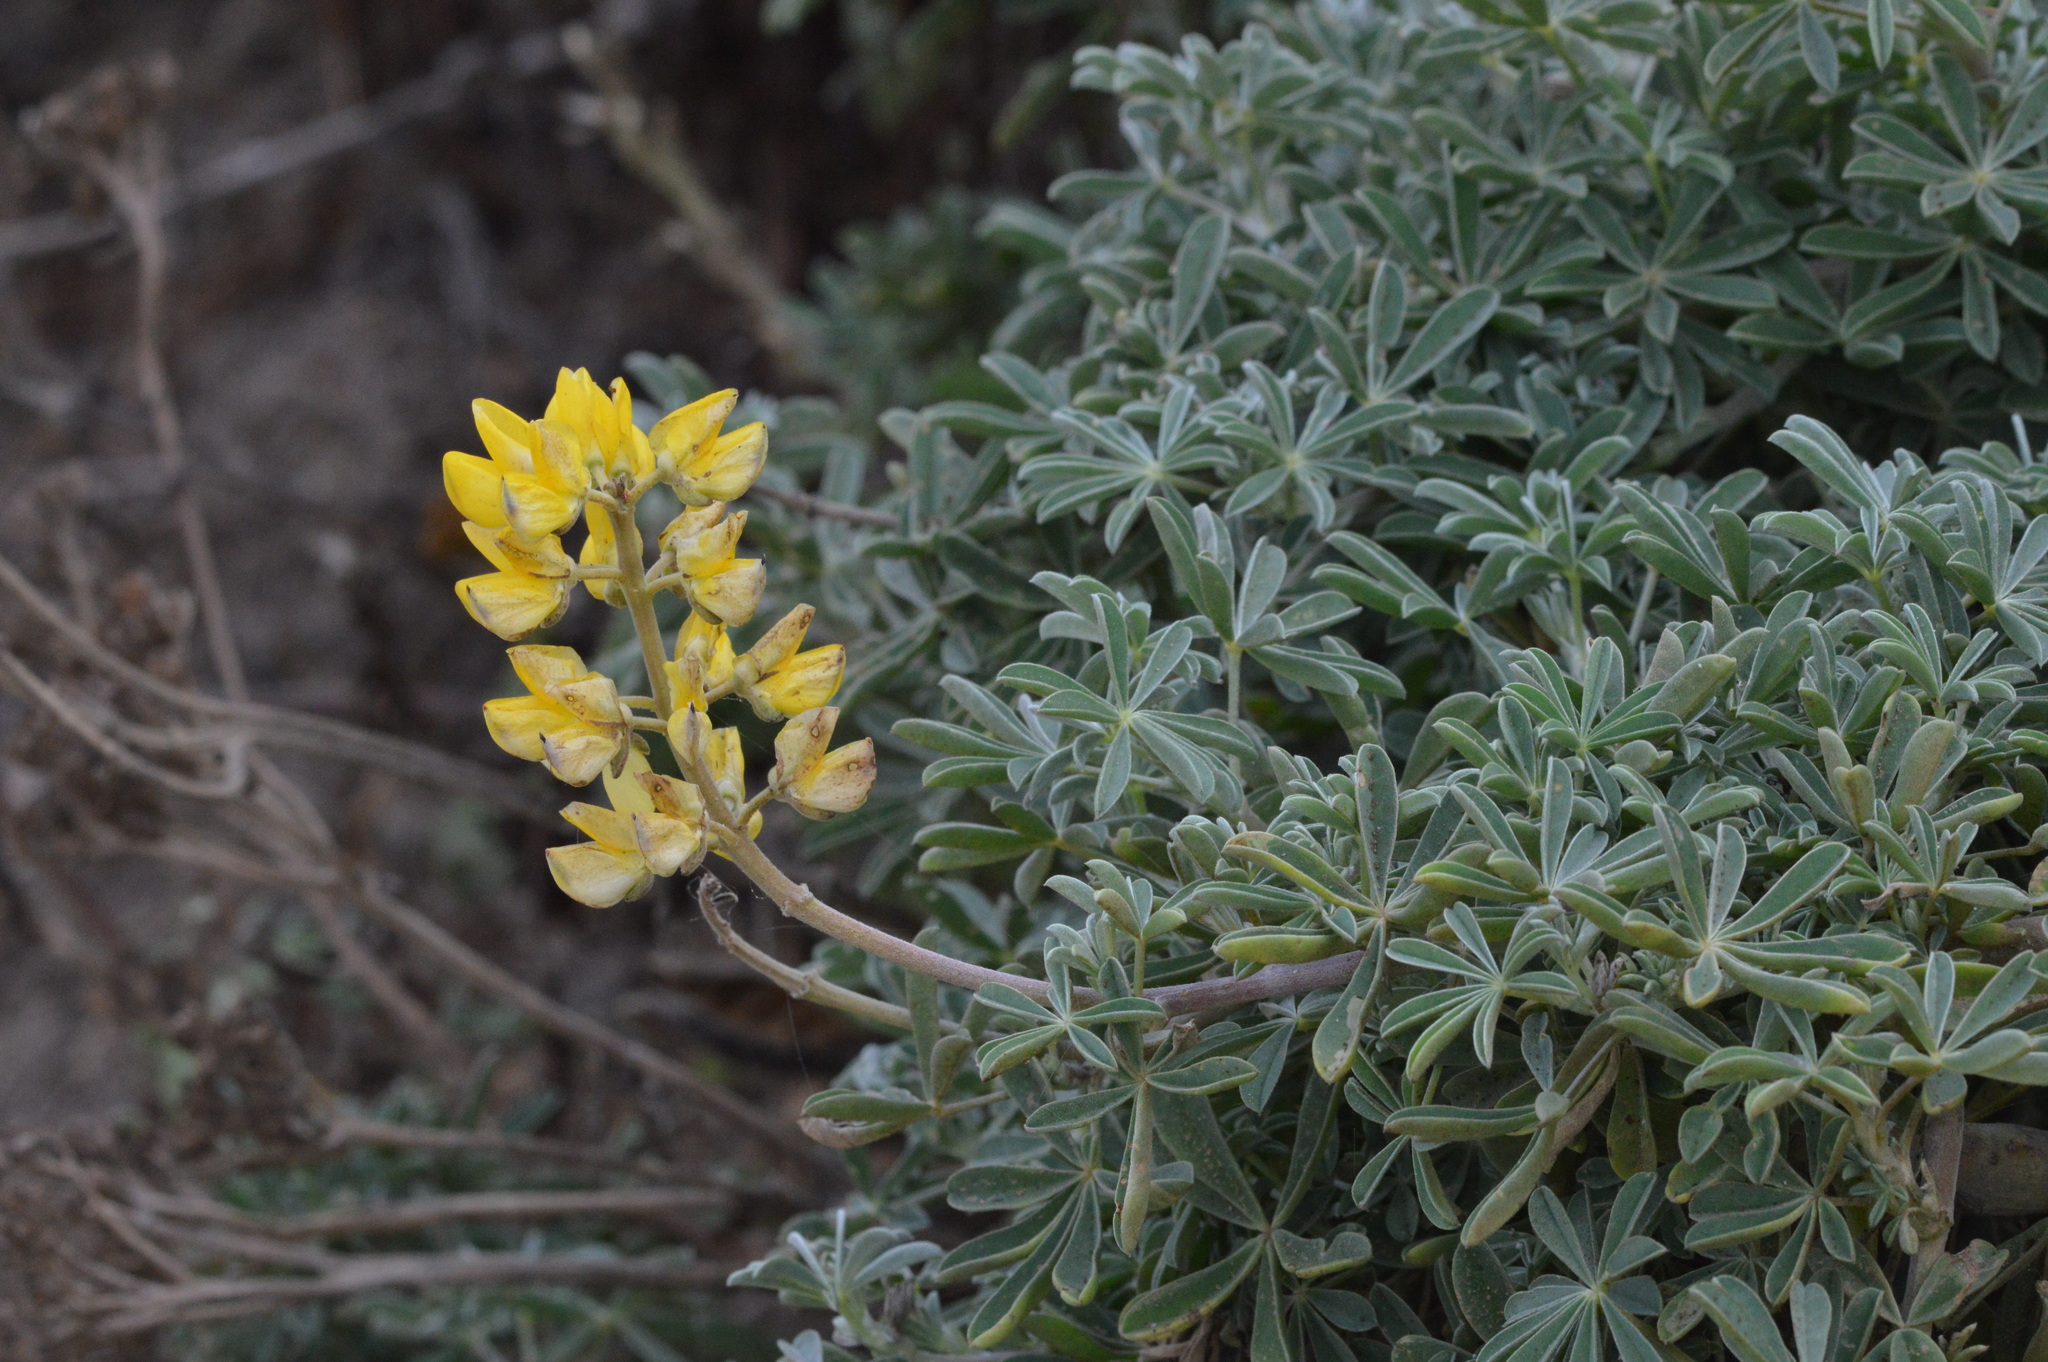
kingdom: Plantae
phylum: Tracheophyta
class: Magnoliopsida
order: Fabales
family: Fabaceae
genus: Lupinus
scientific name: Lupinus arboreus
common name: Yellow bush lupine
